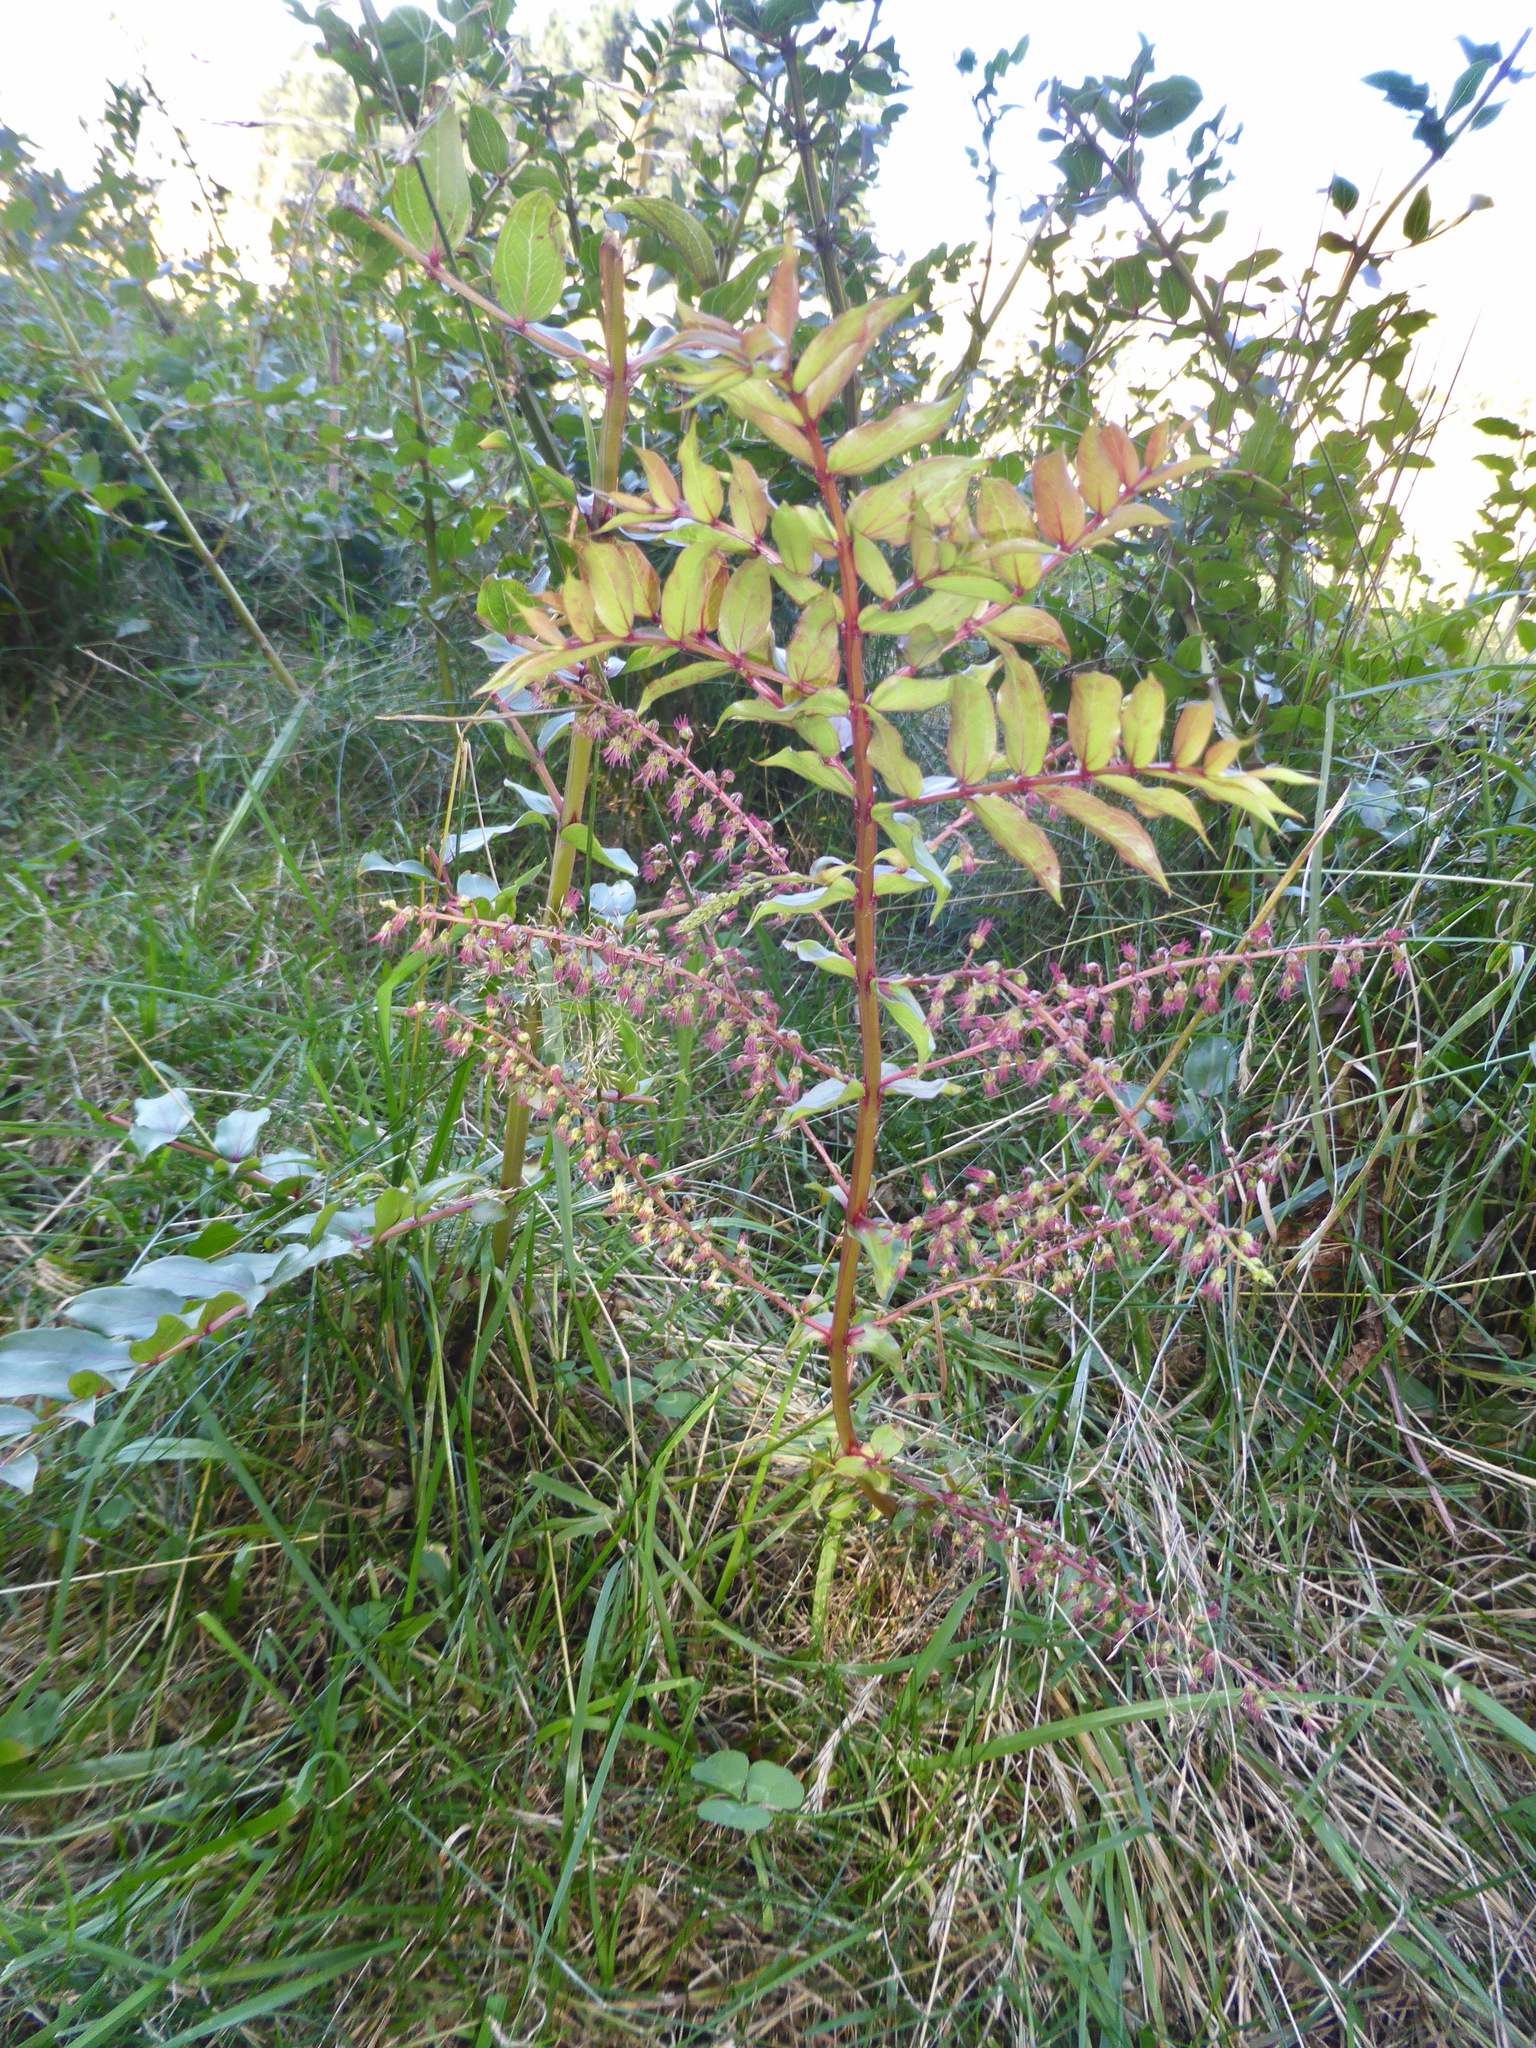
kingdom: Plantae
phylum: Tracheophyta
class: Magnoliopsida
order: Cucurbitales
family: Coriariaceae
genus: Coriaria
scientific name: Coriaria sarmentosa
